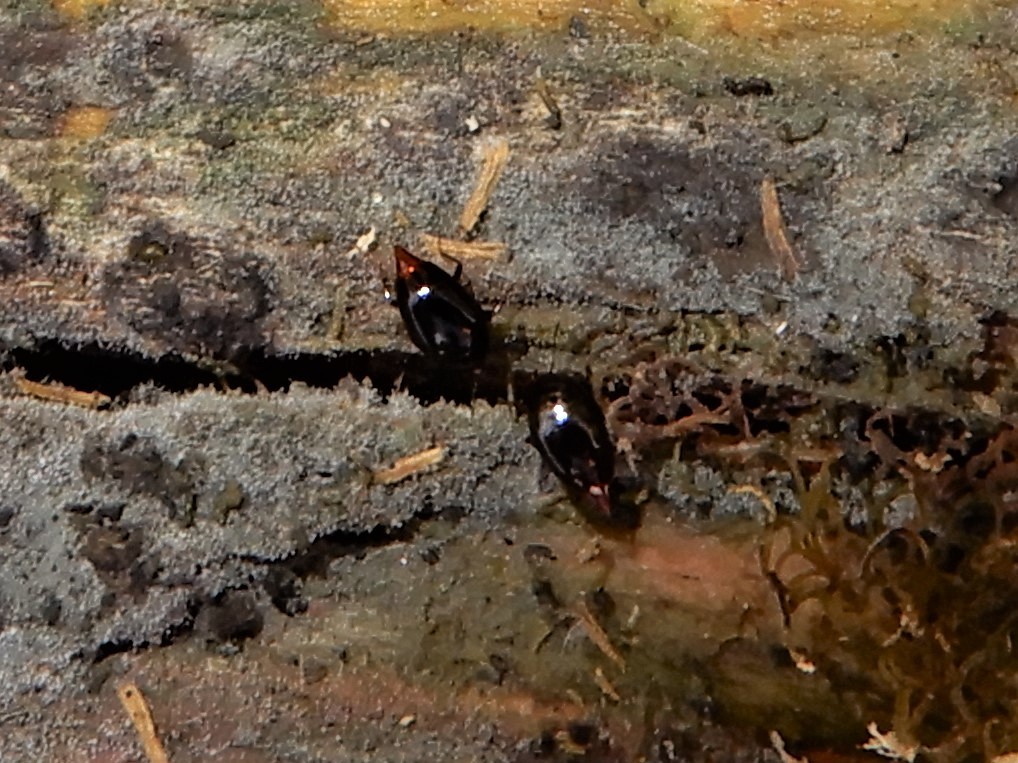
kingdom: Animalia
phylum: Arthropoda
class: Insecta
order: Coleoptera
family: Staphylinidae
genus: Brachynopus
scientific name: Brachynopus scutellaris
